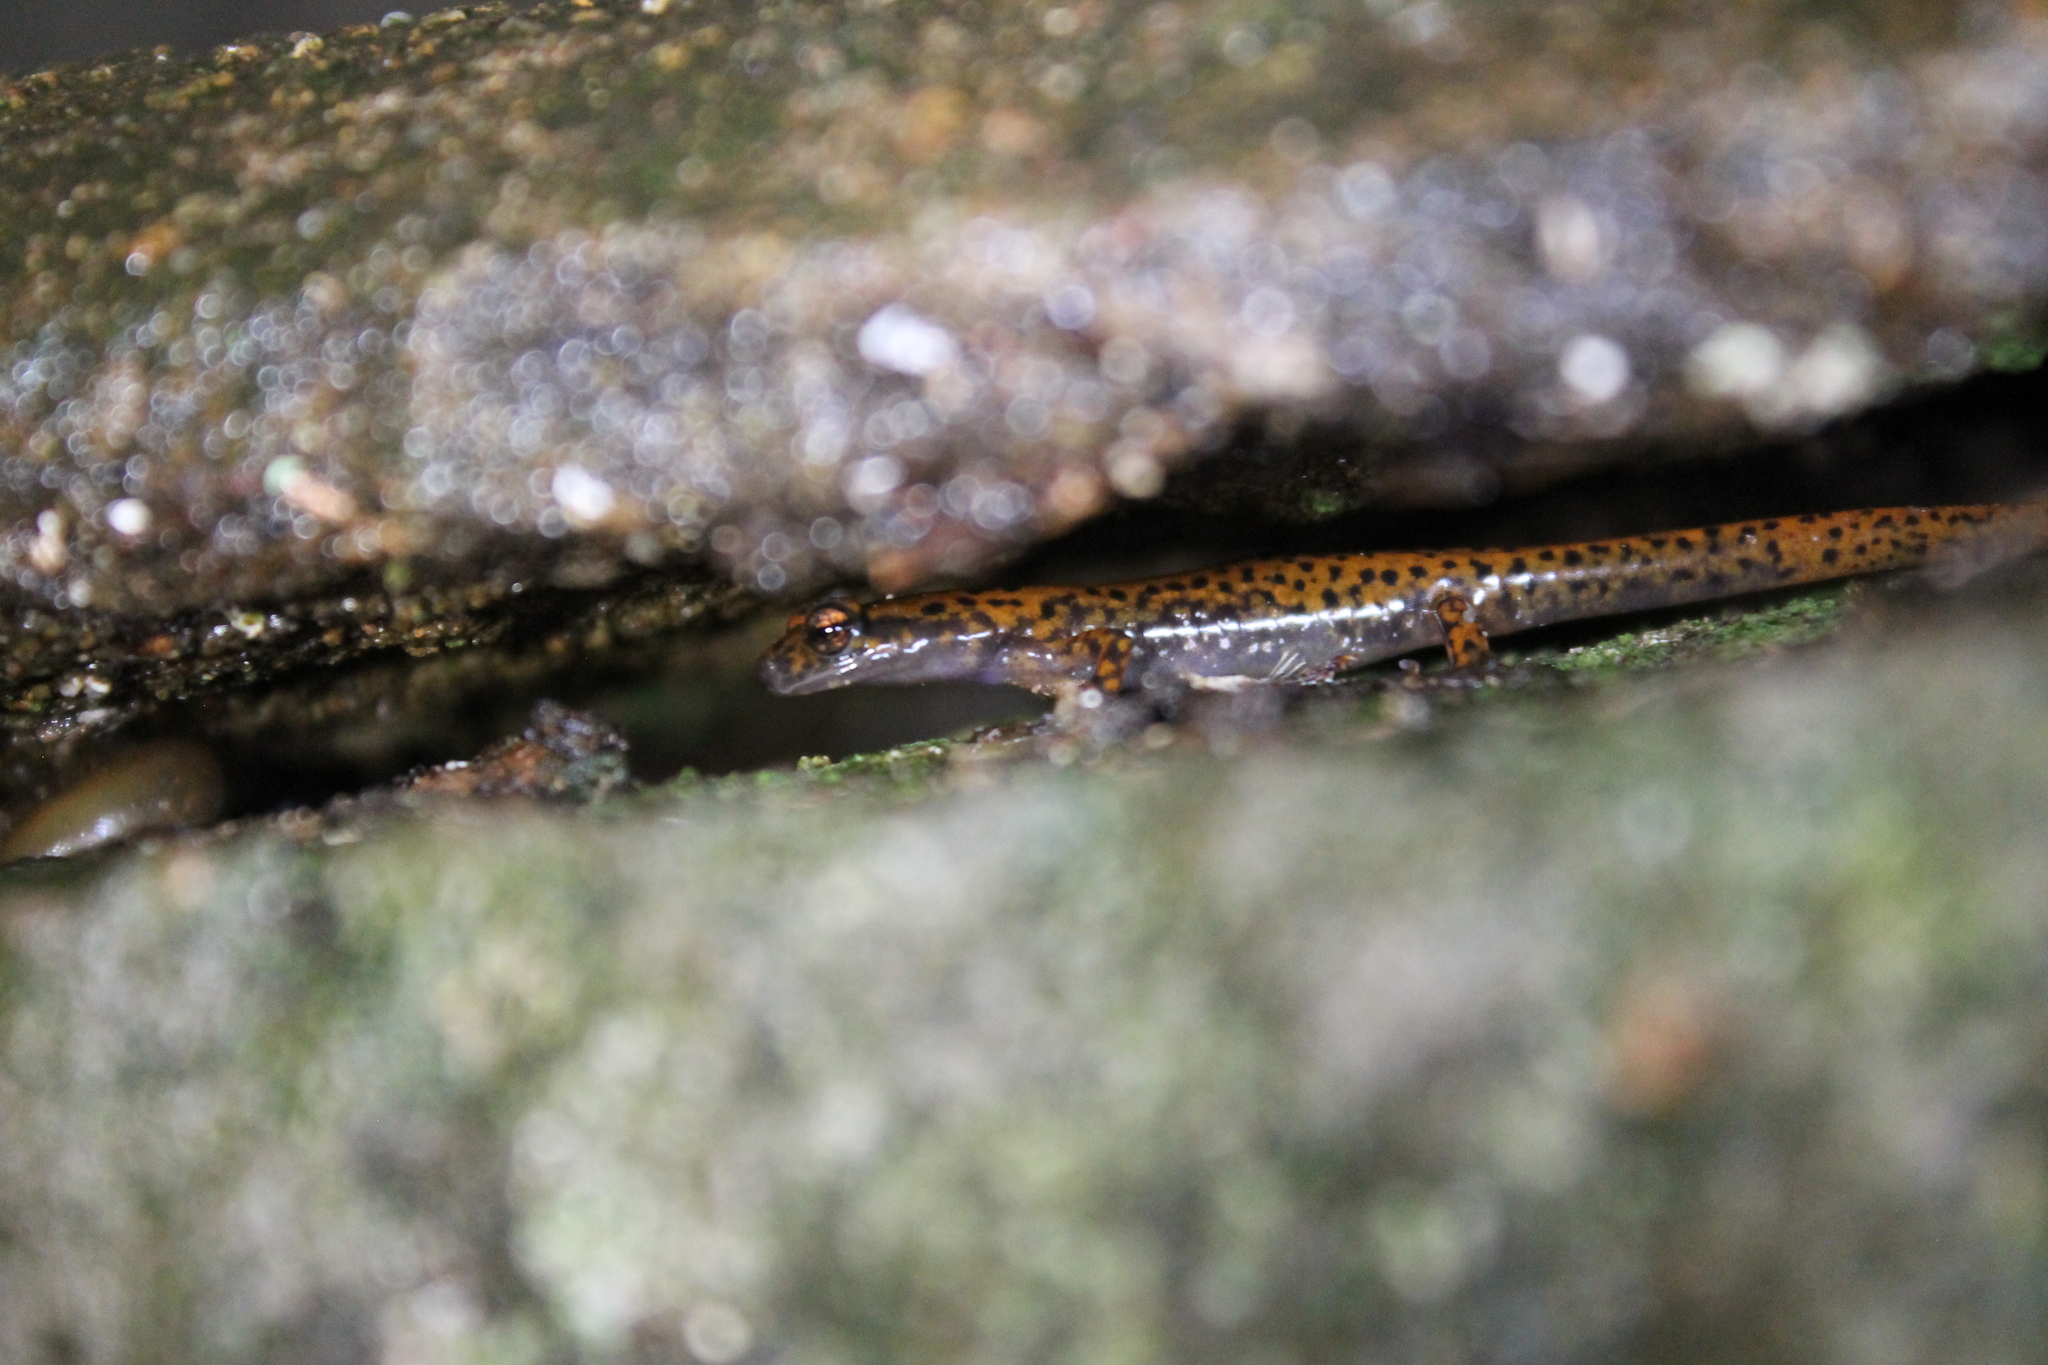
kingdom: Animalia
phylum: Chordata
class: Amphibia
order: Caudata
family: Plethodontidae
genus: Eurycea
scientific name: Eurycea lucifuga
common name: Cave salamander
